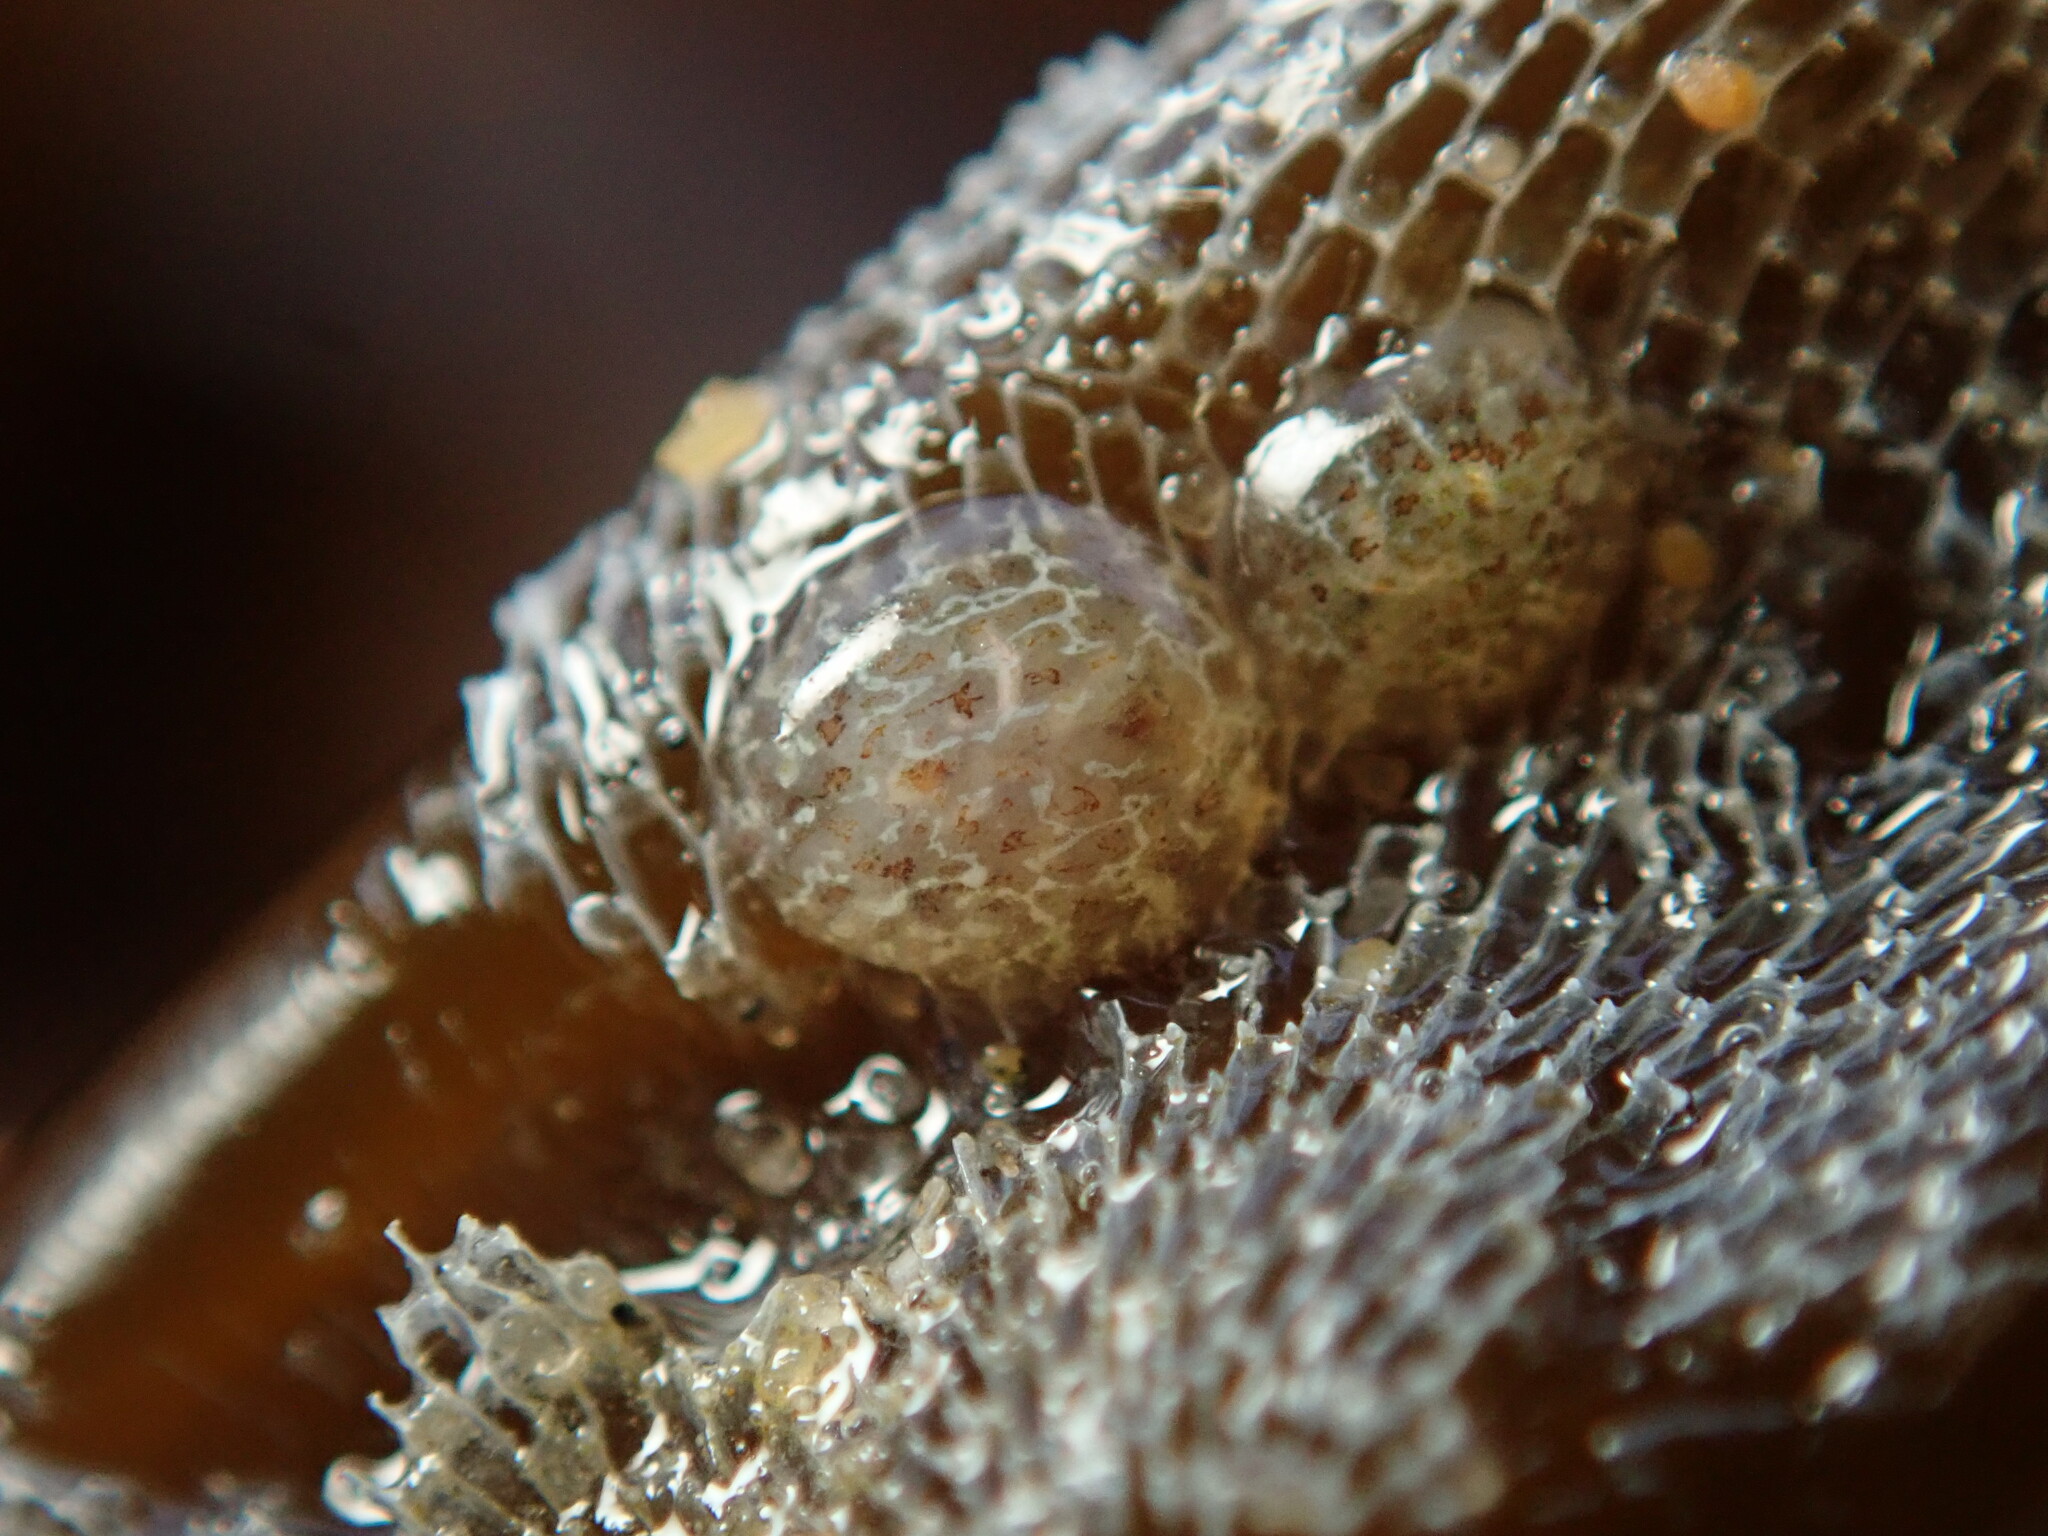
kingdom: Animalia
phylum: Mollusca
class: Gastropoda
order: Nudibranchia
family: Corambidae
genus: Corambe
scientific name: Corambe steinbergae
